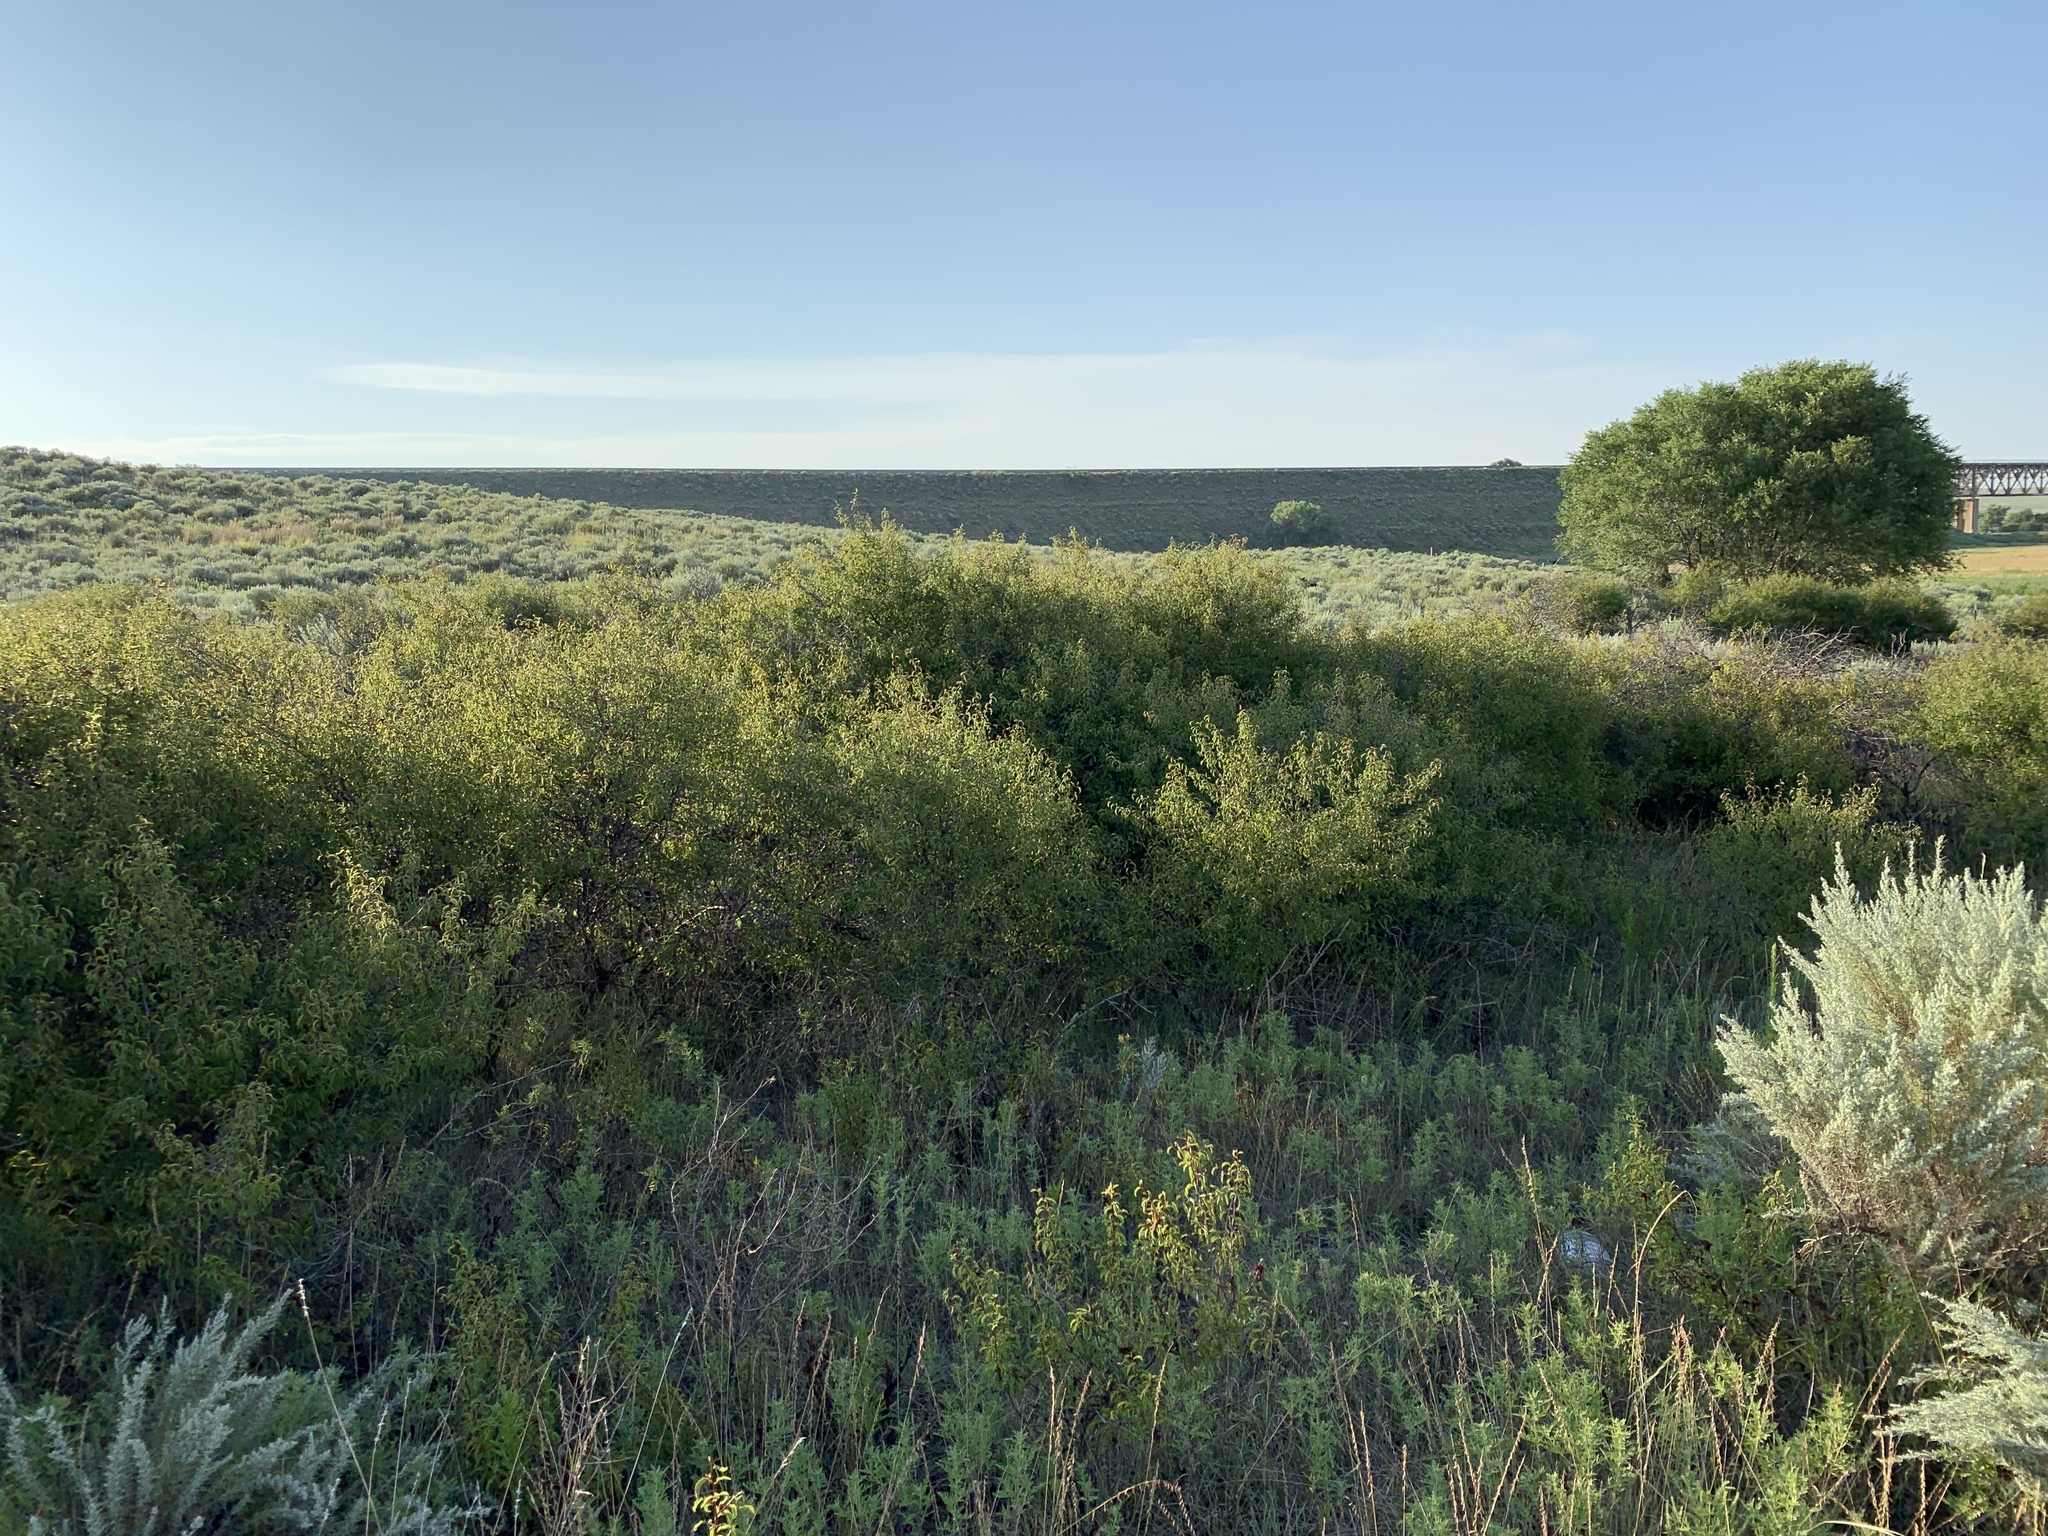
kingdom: Plantae
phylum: Tracheophyta
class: Magnoliopsida
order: Rosales
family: Rosaceae
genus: Prunus
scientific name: Prunus angustifolia
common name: Cherokee plum
